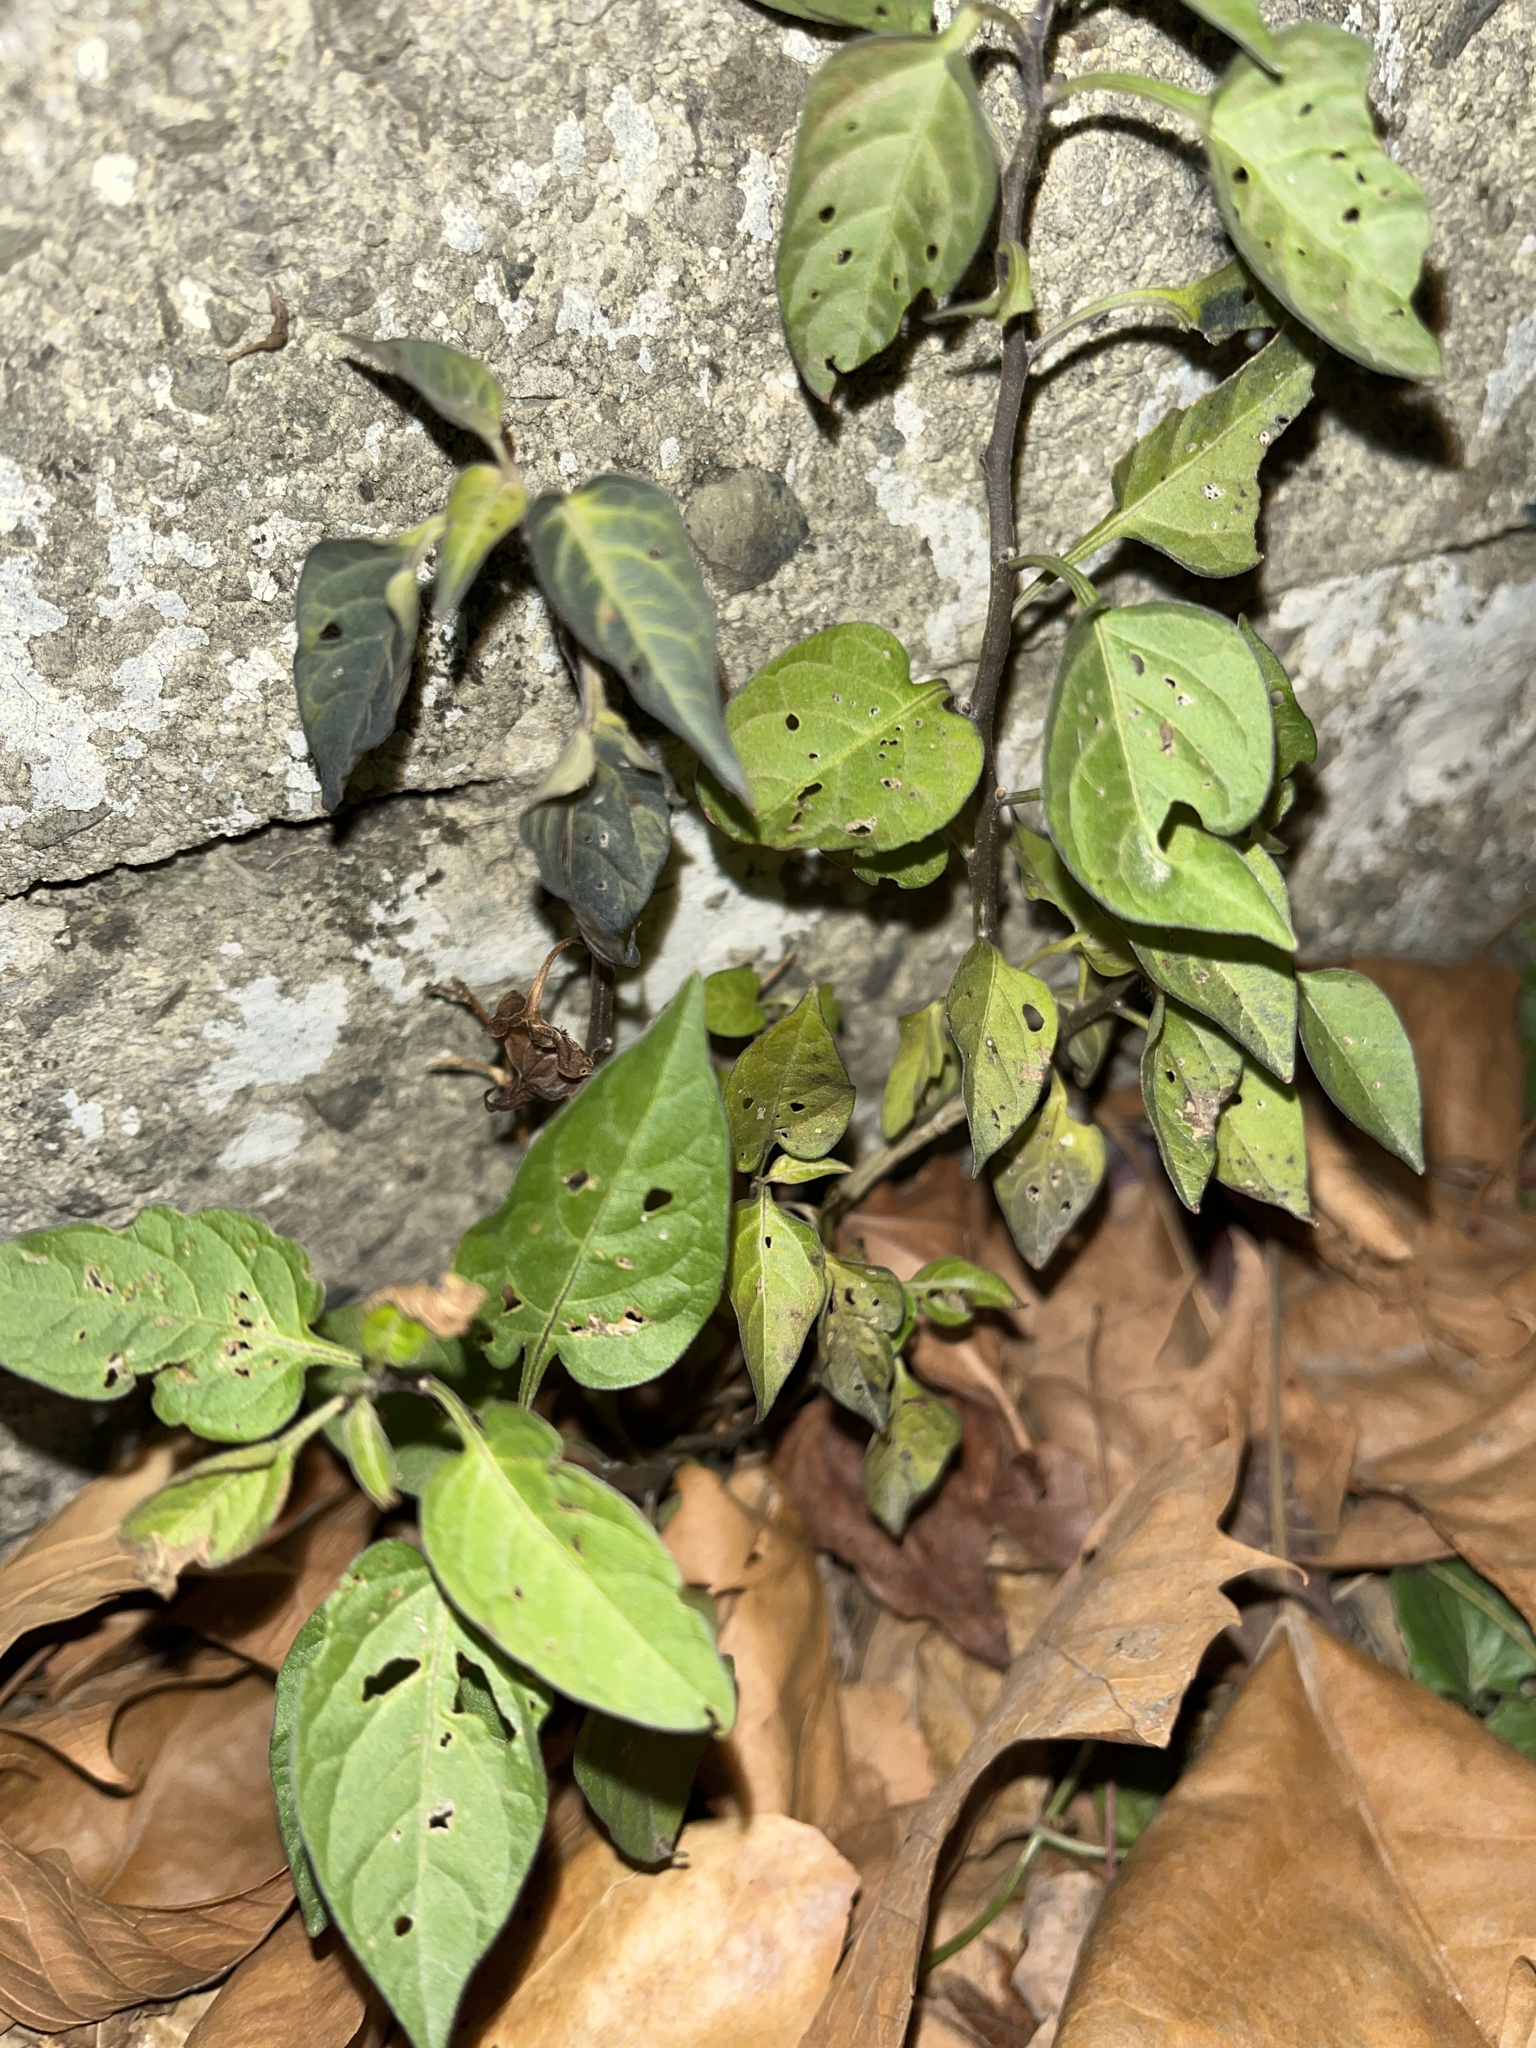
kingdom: Plantae
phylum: Tracheophyta
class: Magnoliopsida
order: Solanales
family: Solanaceae
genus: Solanum
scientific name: Solanum dulcamara
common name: Climbing nightshade
